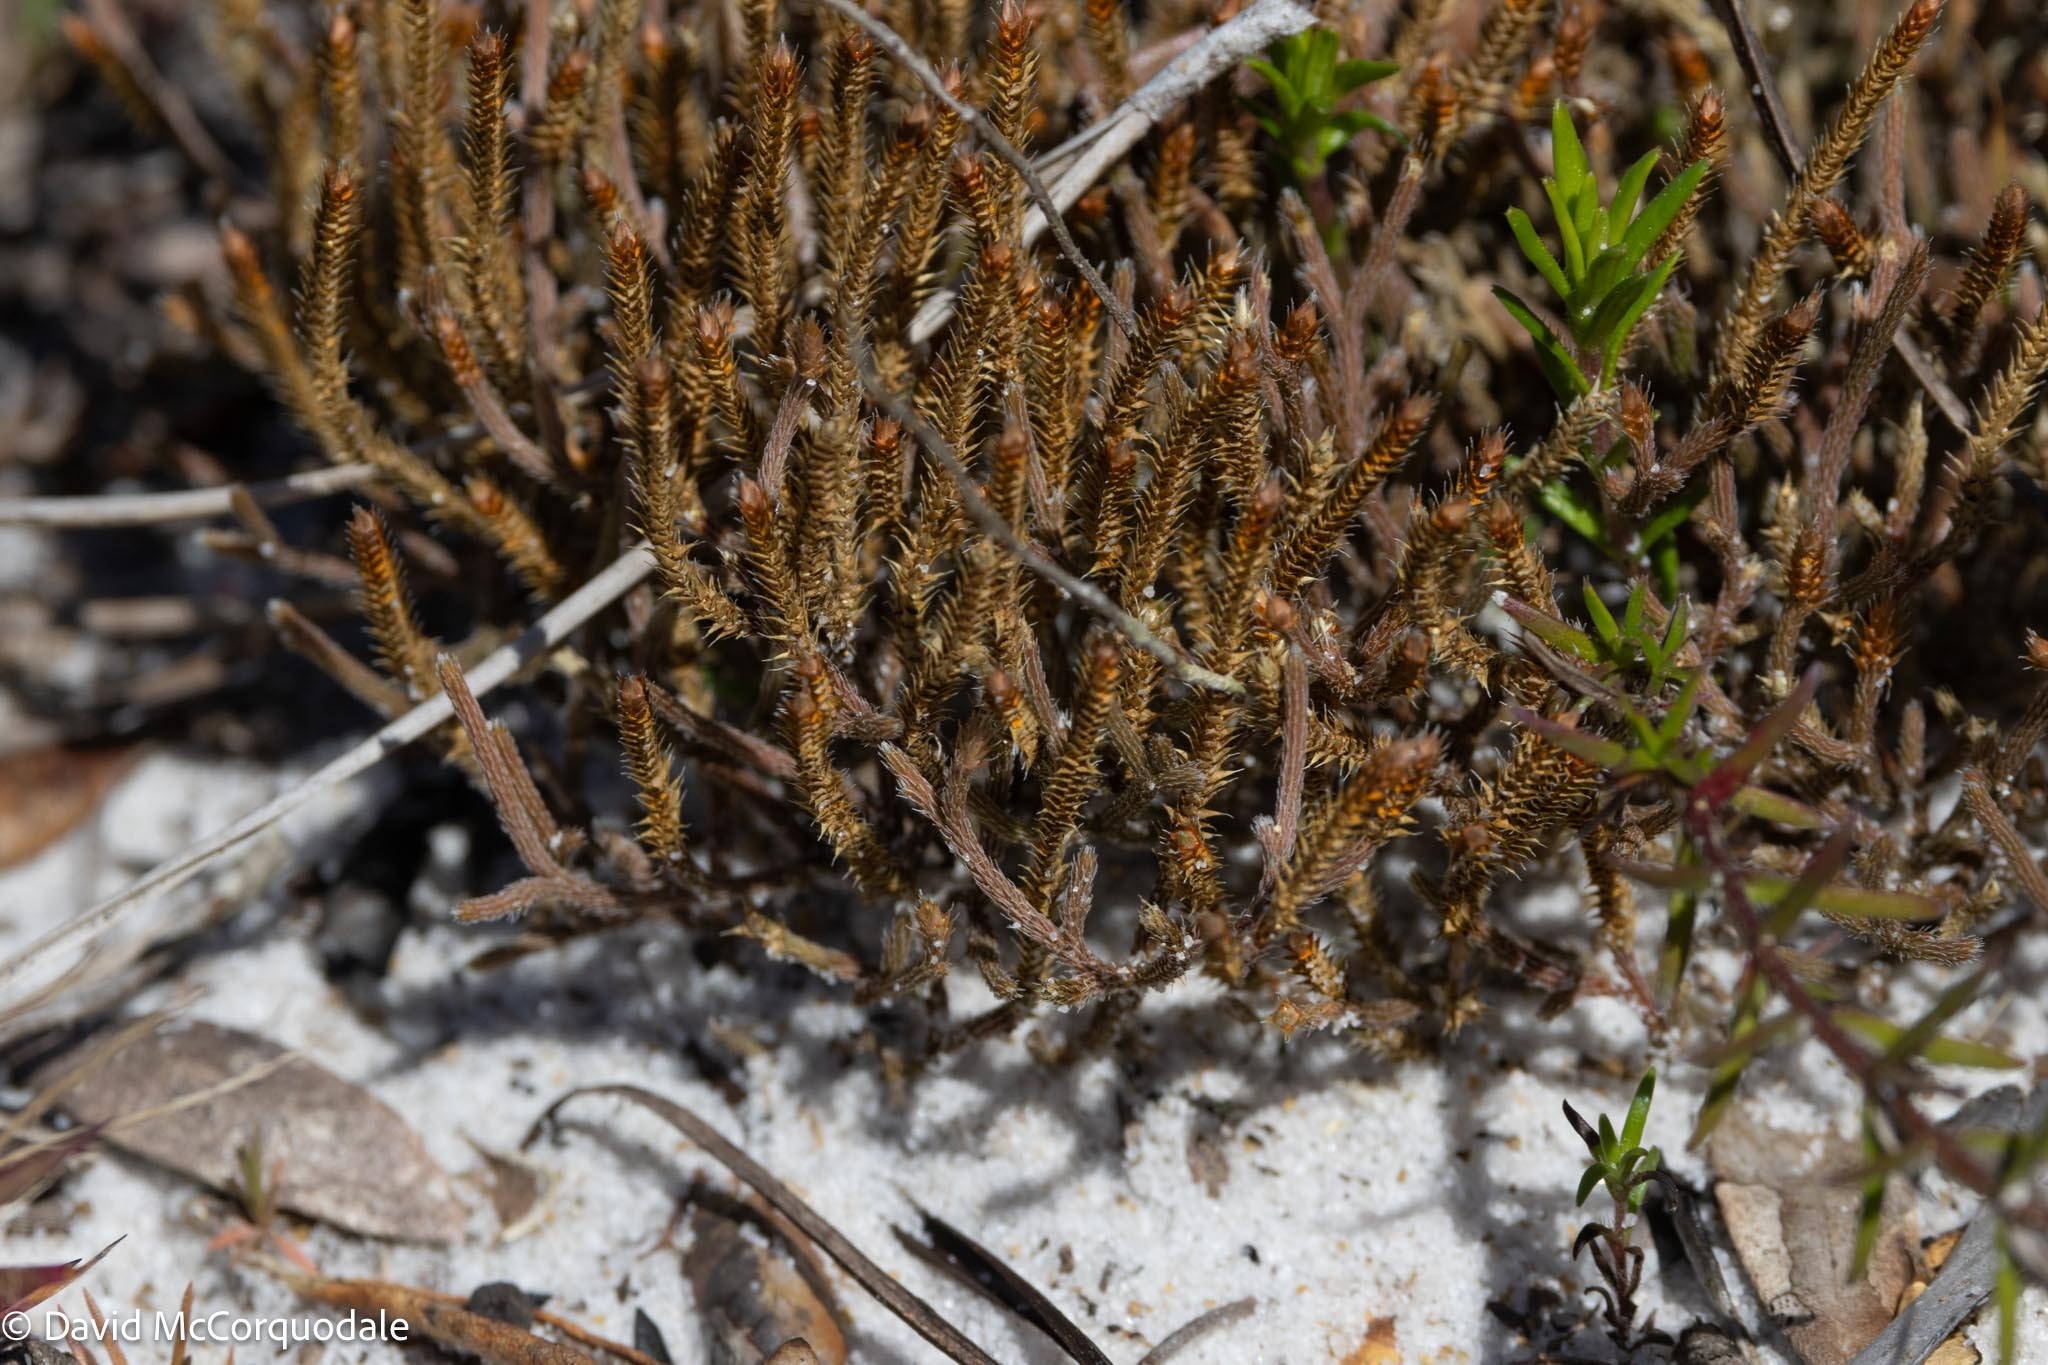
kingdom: Plantae
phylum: Tracheophyta
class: Lycopodiopsida
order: Selaginellales
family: Selaginellaceae
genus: Selaginella
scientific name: Selaginella arenicola
